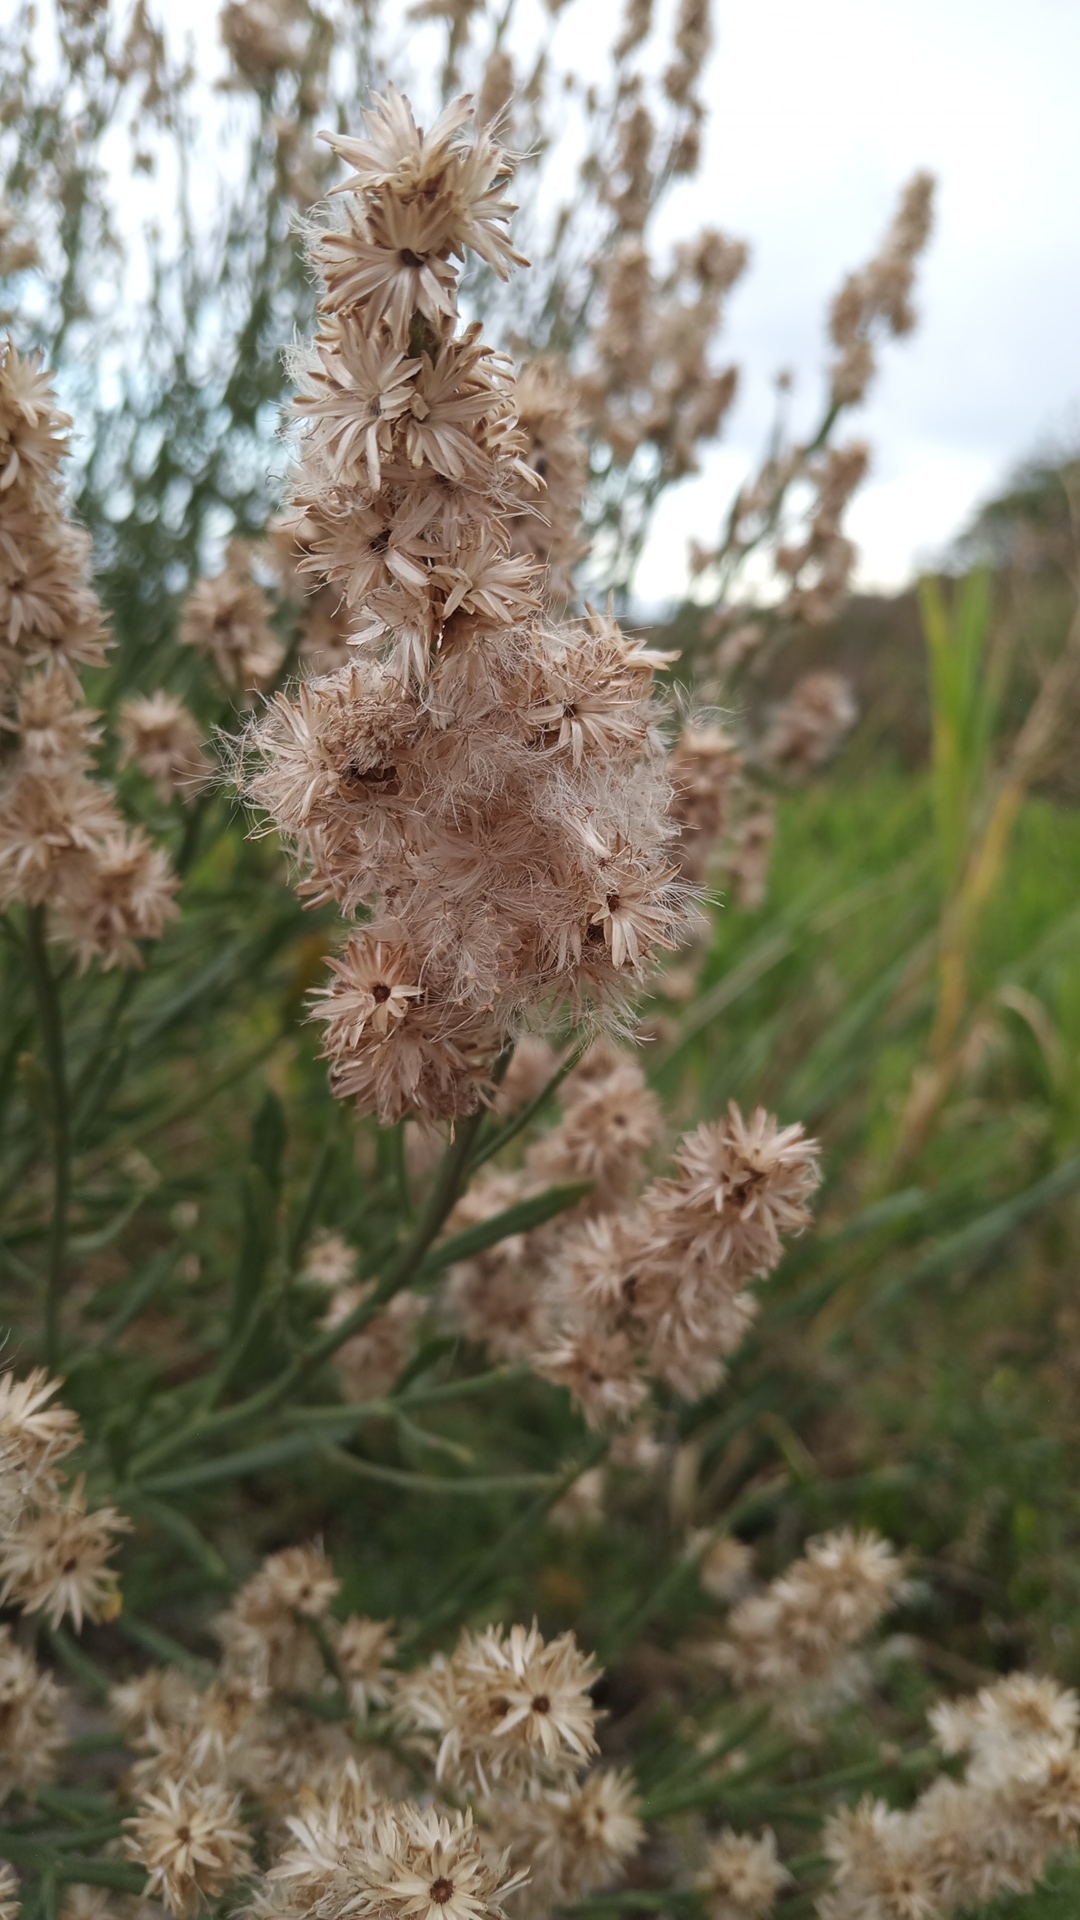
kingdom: Plantae
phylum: Tracheophyta
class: Magnoliopsida
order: Asterales
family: Asteraceae
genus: Baccharis
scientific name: Baccharis spicata
